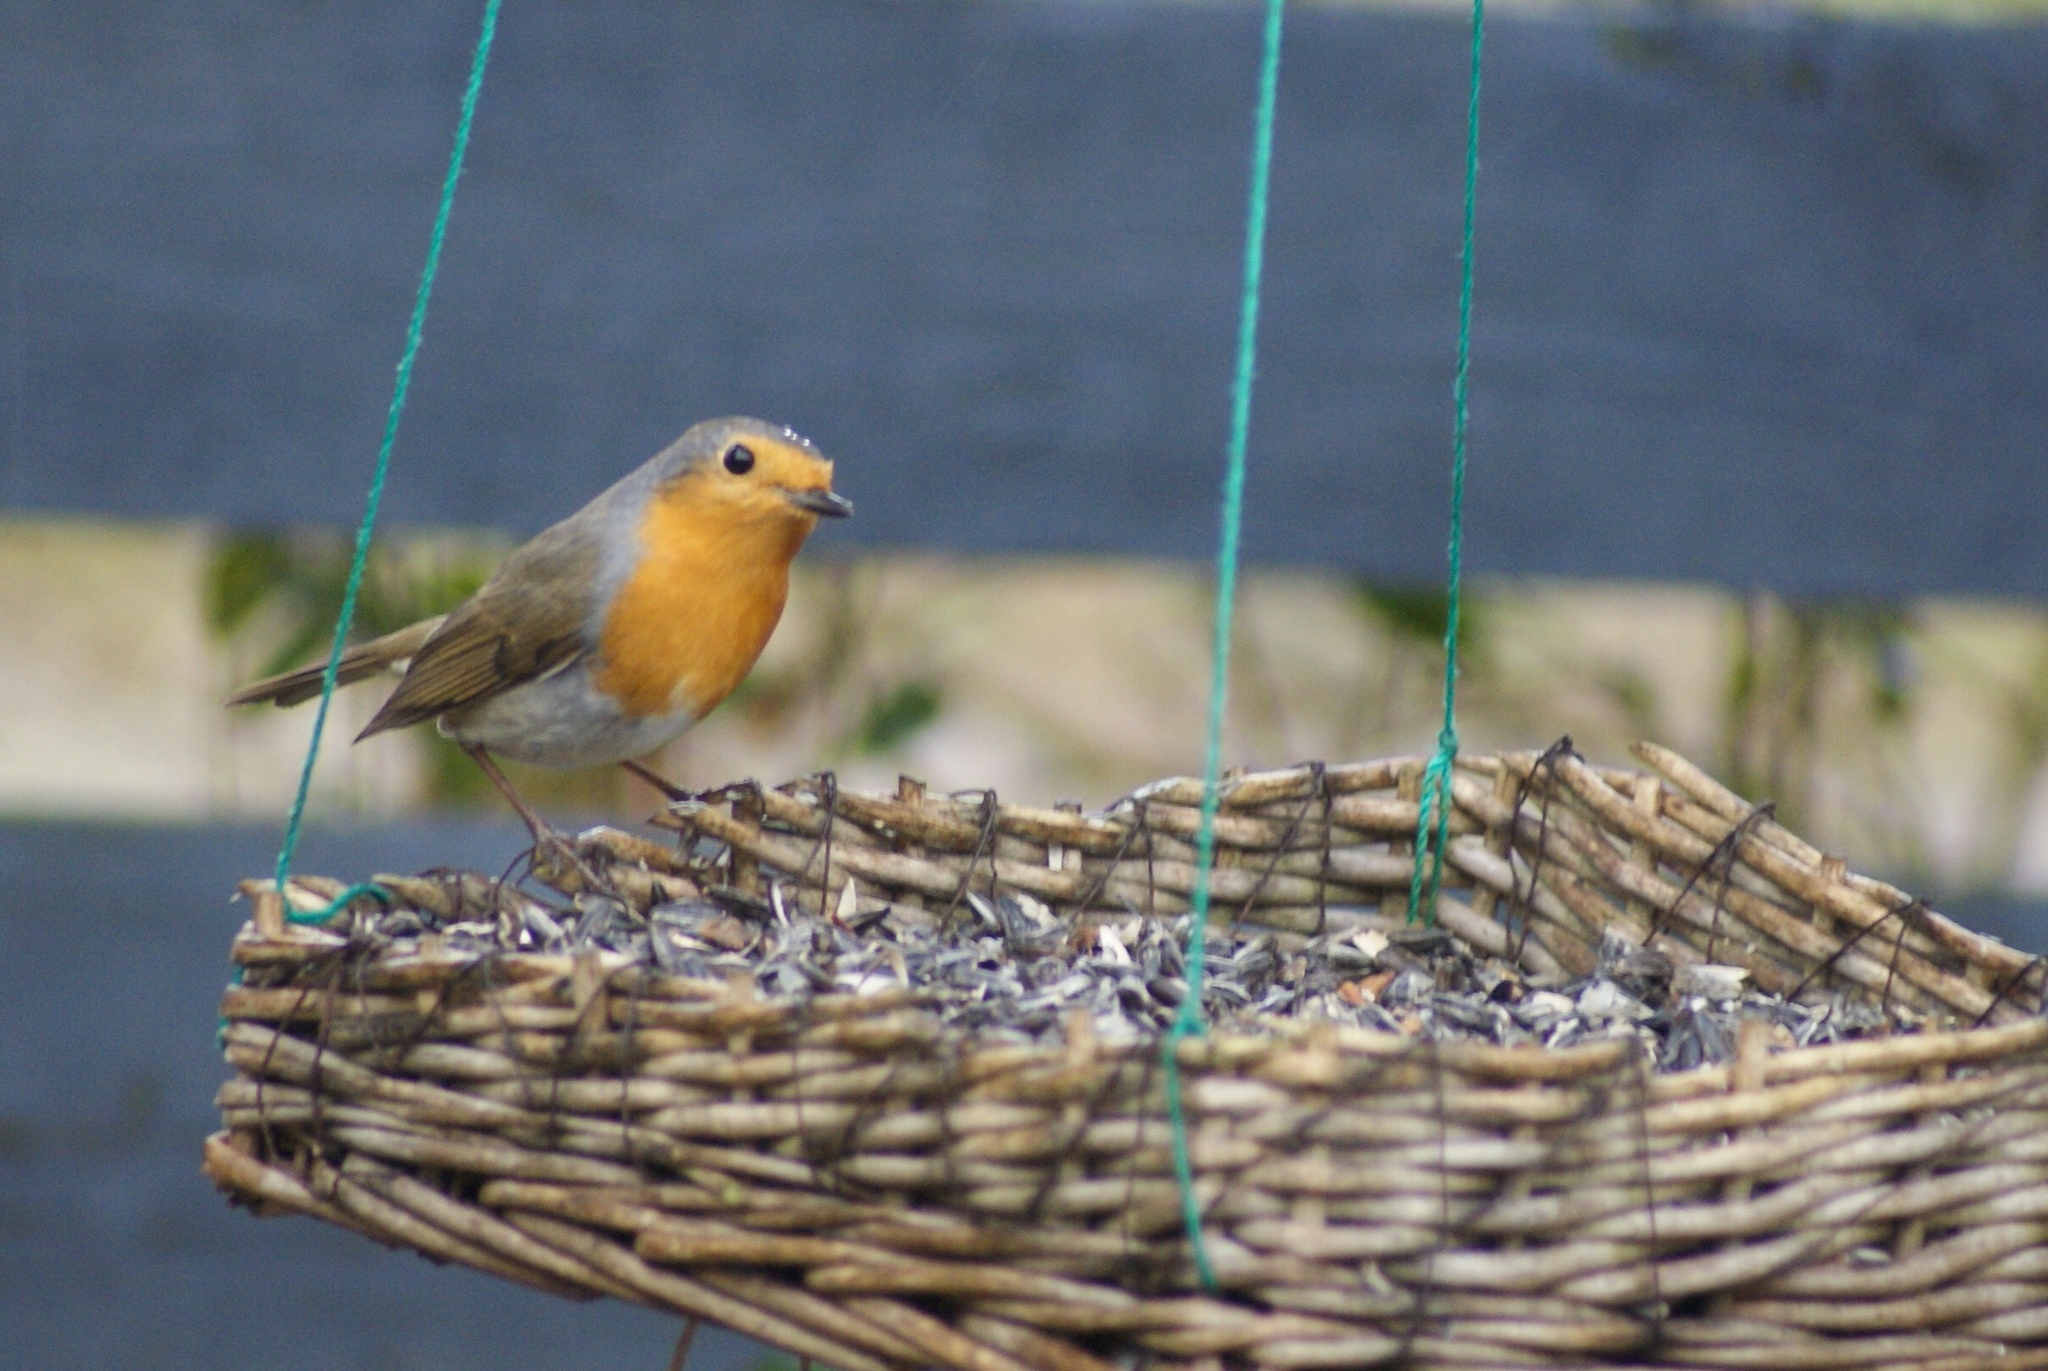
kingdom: Animalia
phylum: Chordata
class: Aves
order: Passeriformes
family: Muscicapidae
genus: Erithacus
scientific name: Erithacus rubecula
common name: European robin
